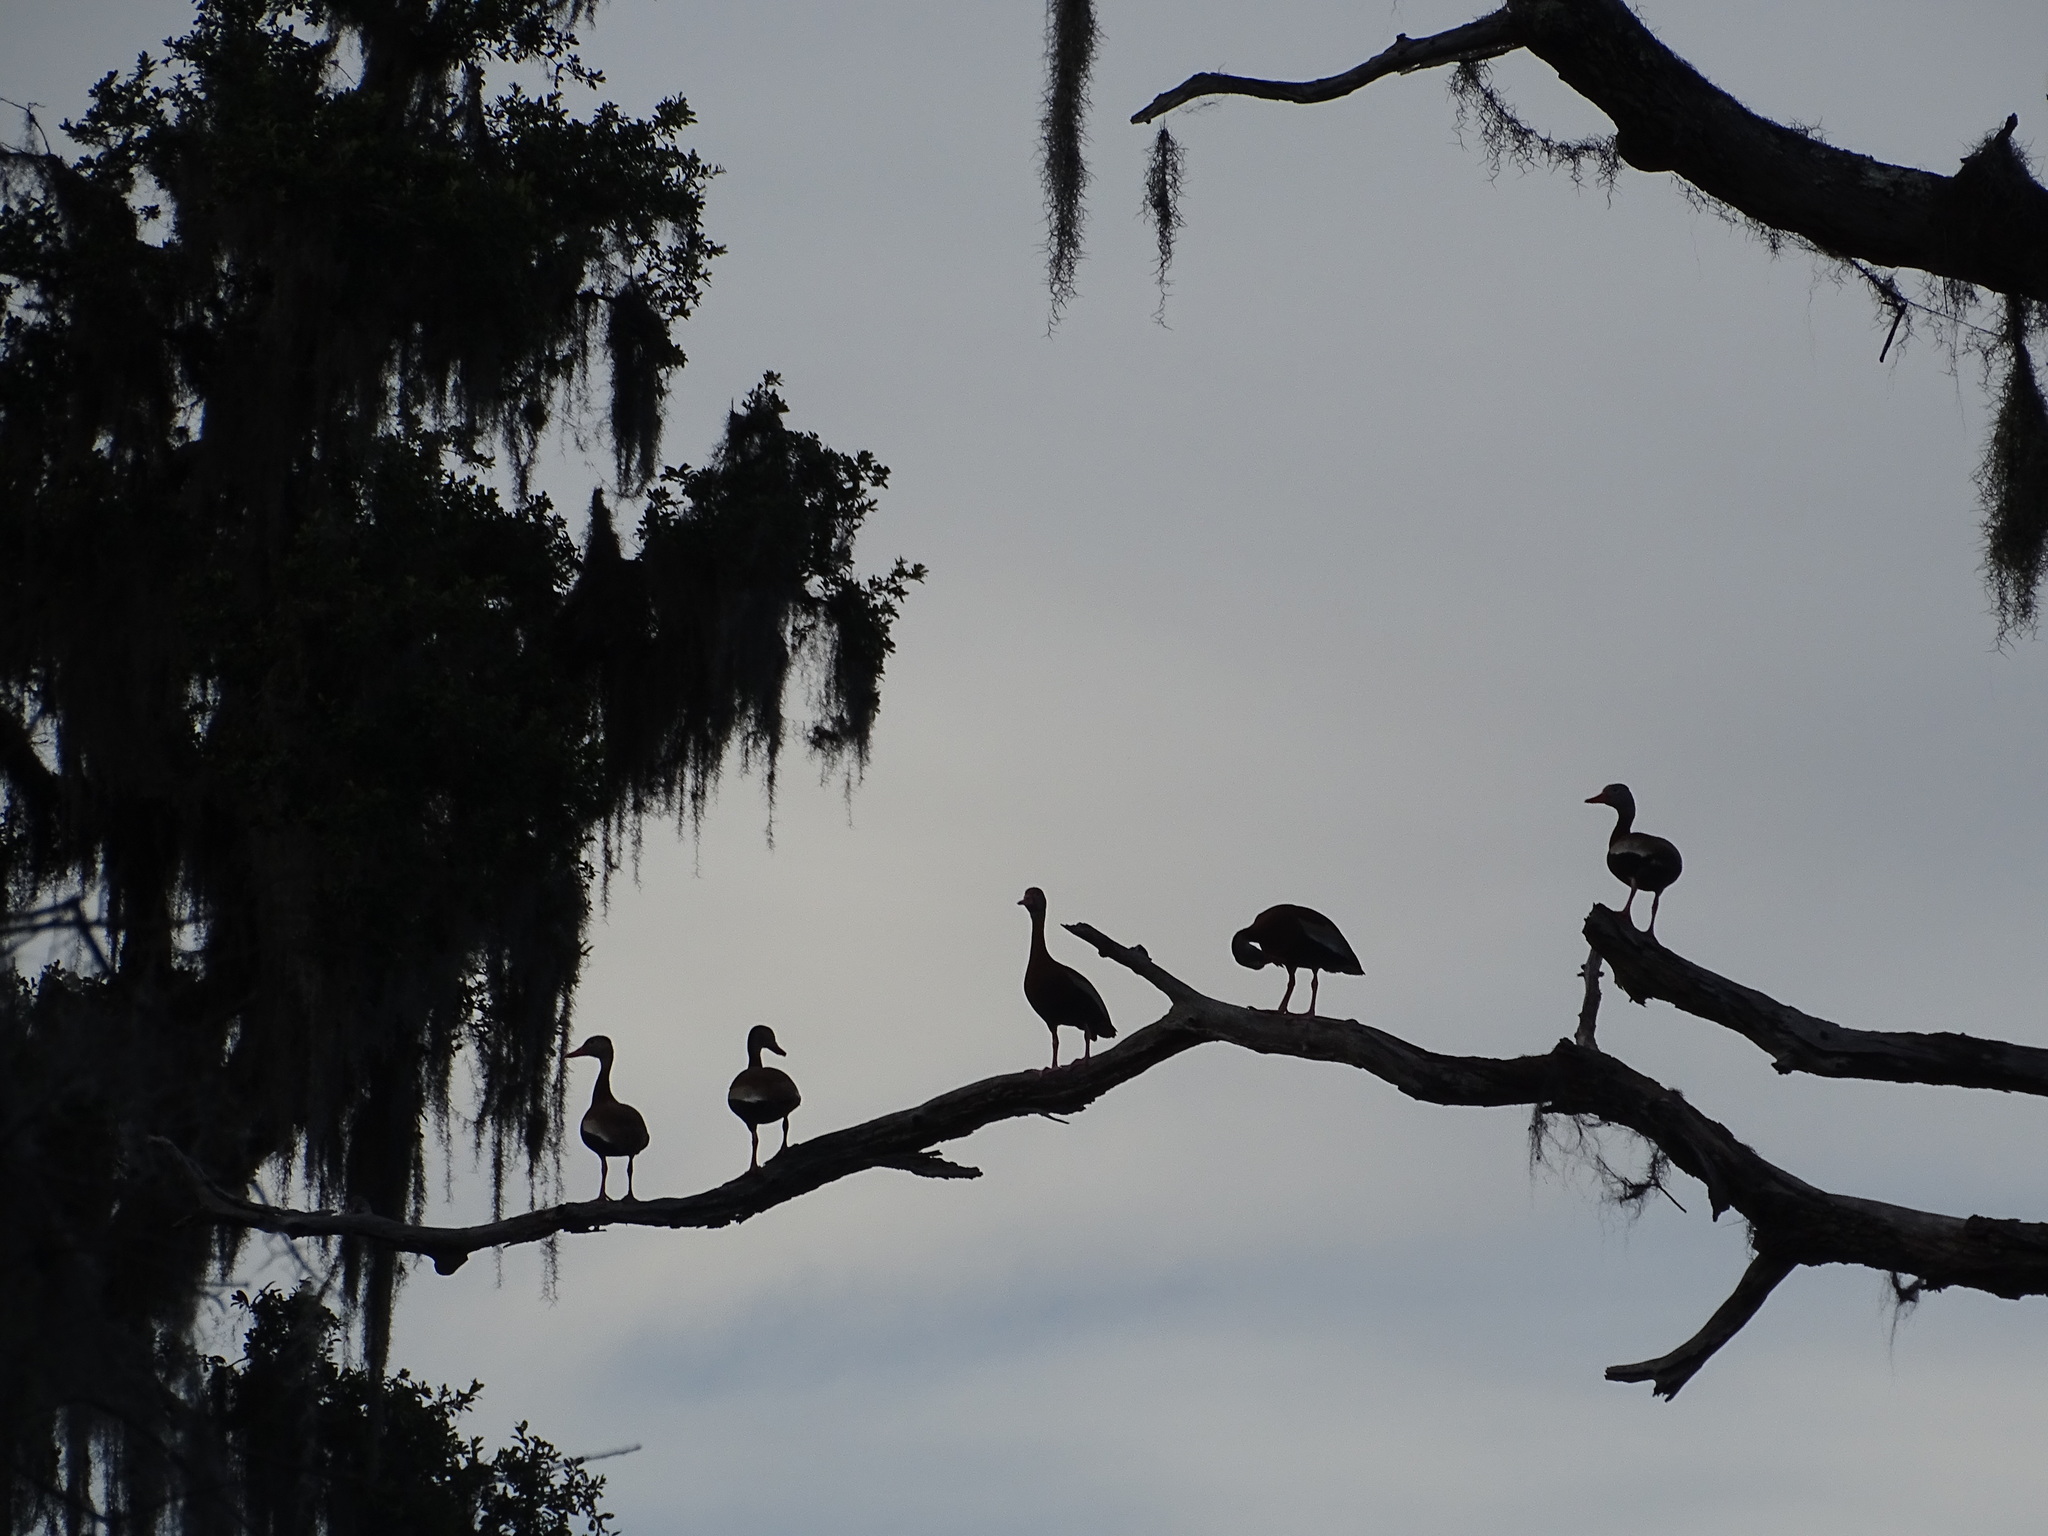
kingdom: Animalia
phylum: Chordata
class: Aves
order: Anseriformes
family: Anatidae
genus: Dendrocygna
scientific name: Dendrocygna autumnalis
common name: Black-bellied whistling duck
